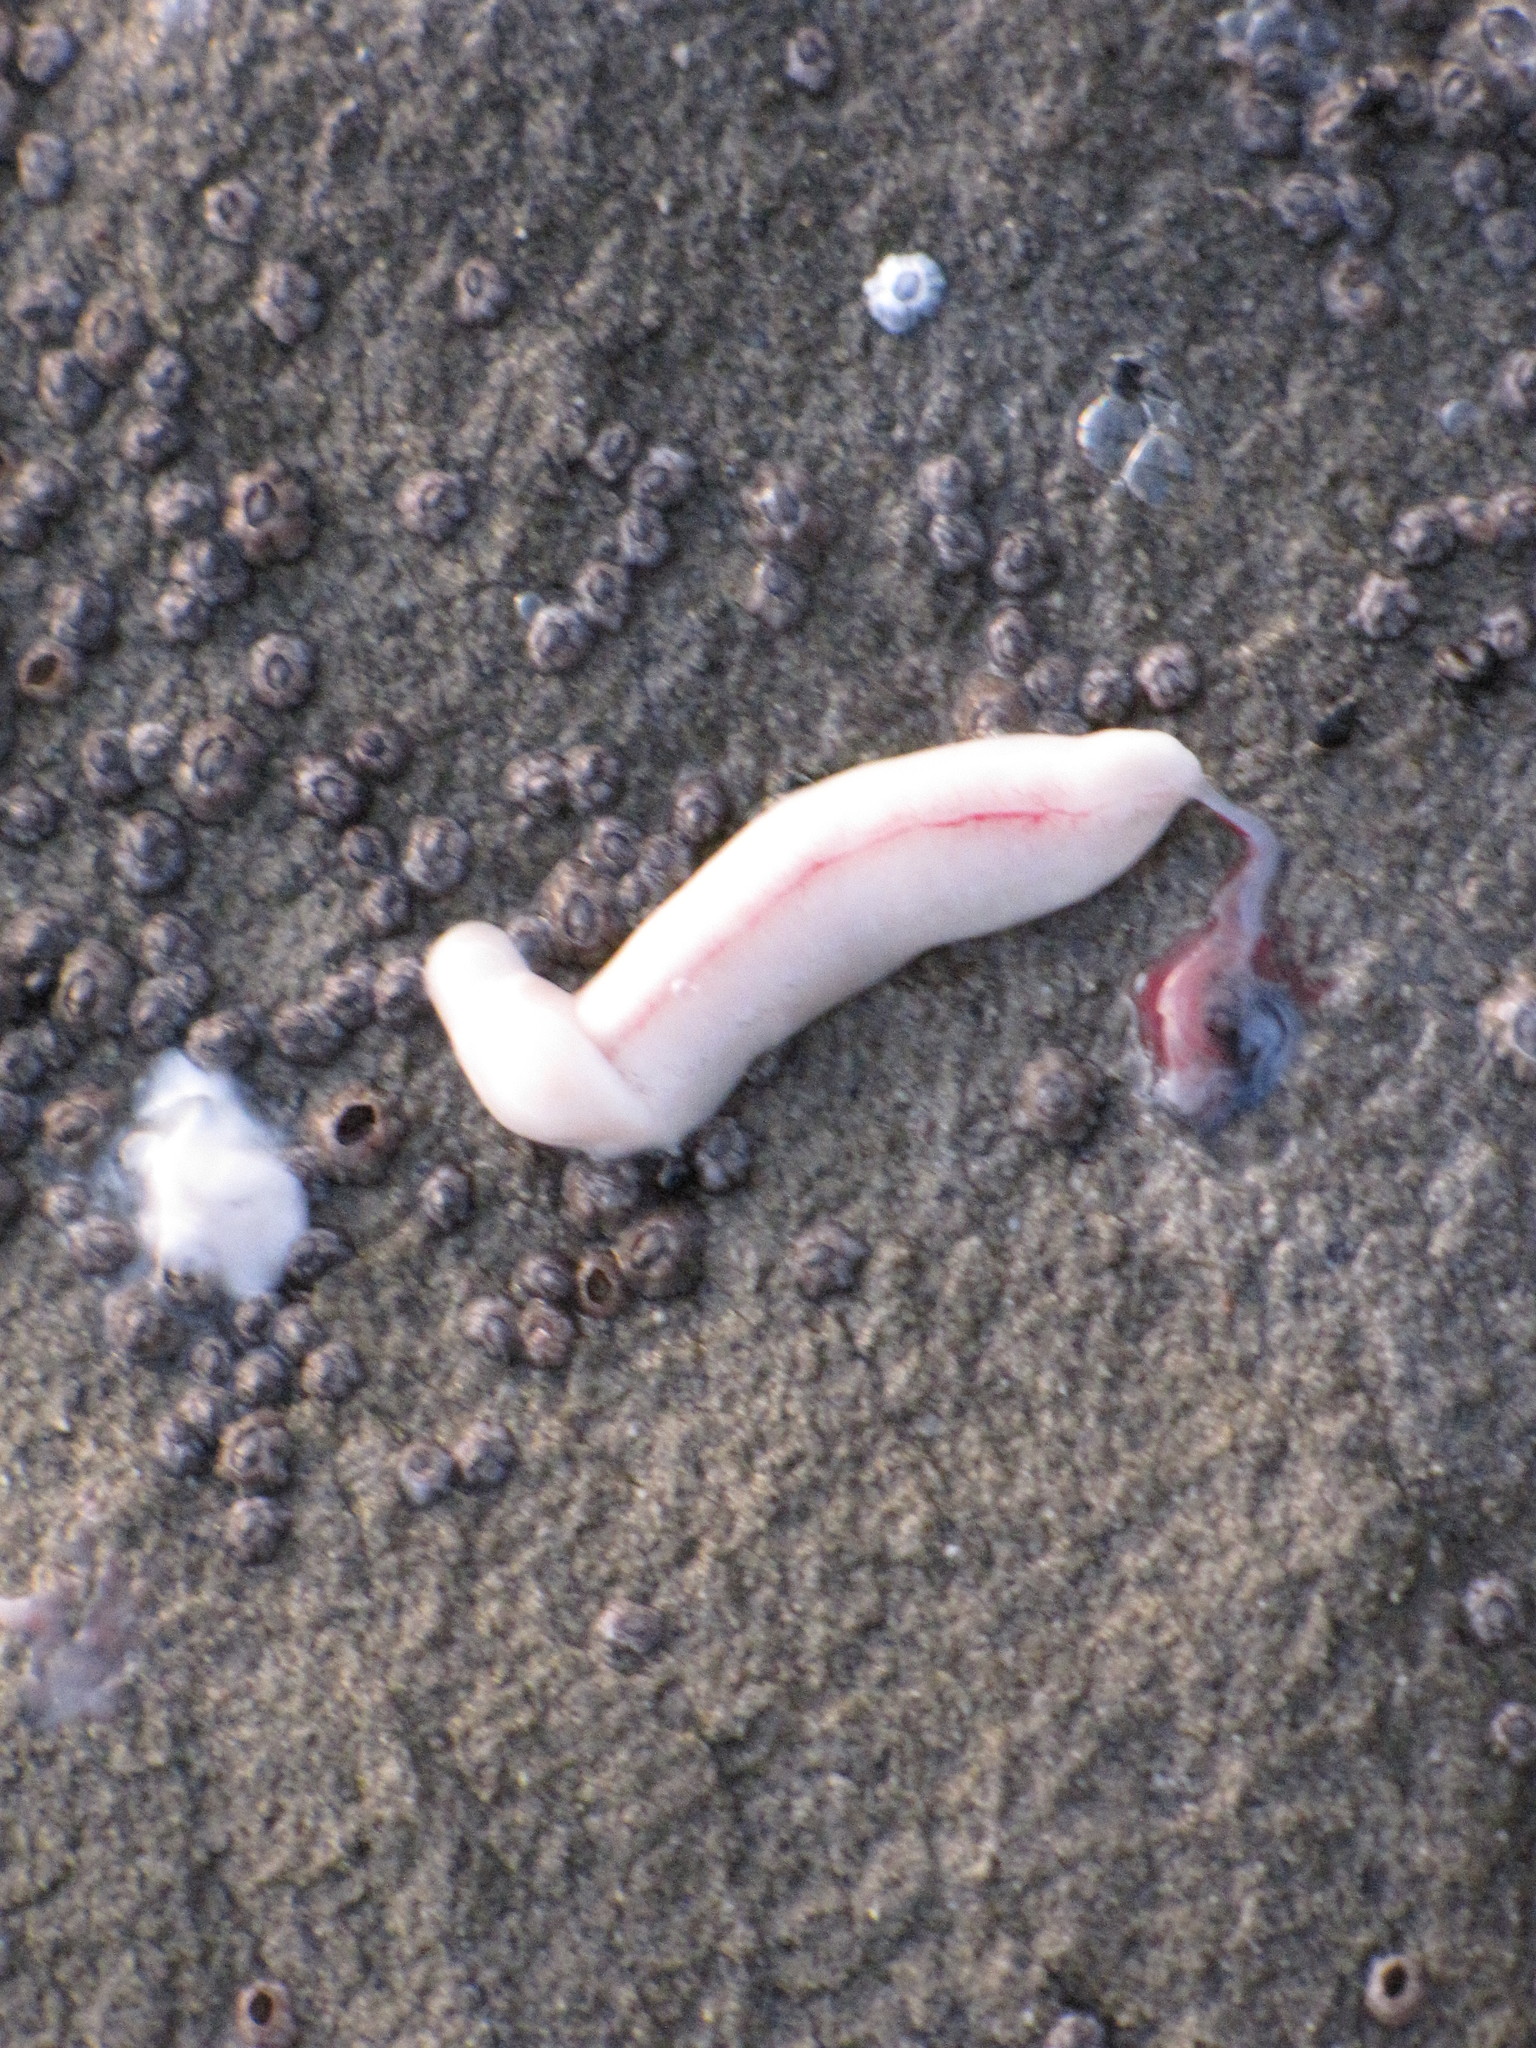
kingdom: Animalia
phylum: Chordata
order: Batrachoidiformes
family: Batrachoididae
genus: Porichthys
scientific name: Porichthys notatus
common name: Plainfin midshipman
